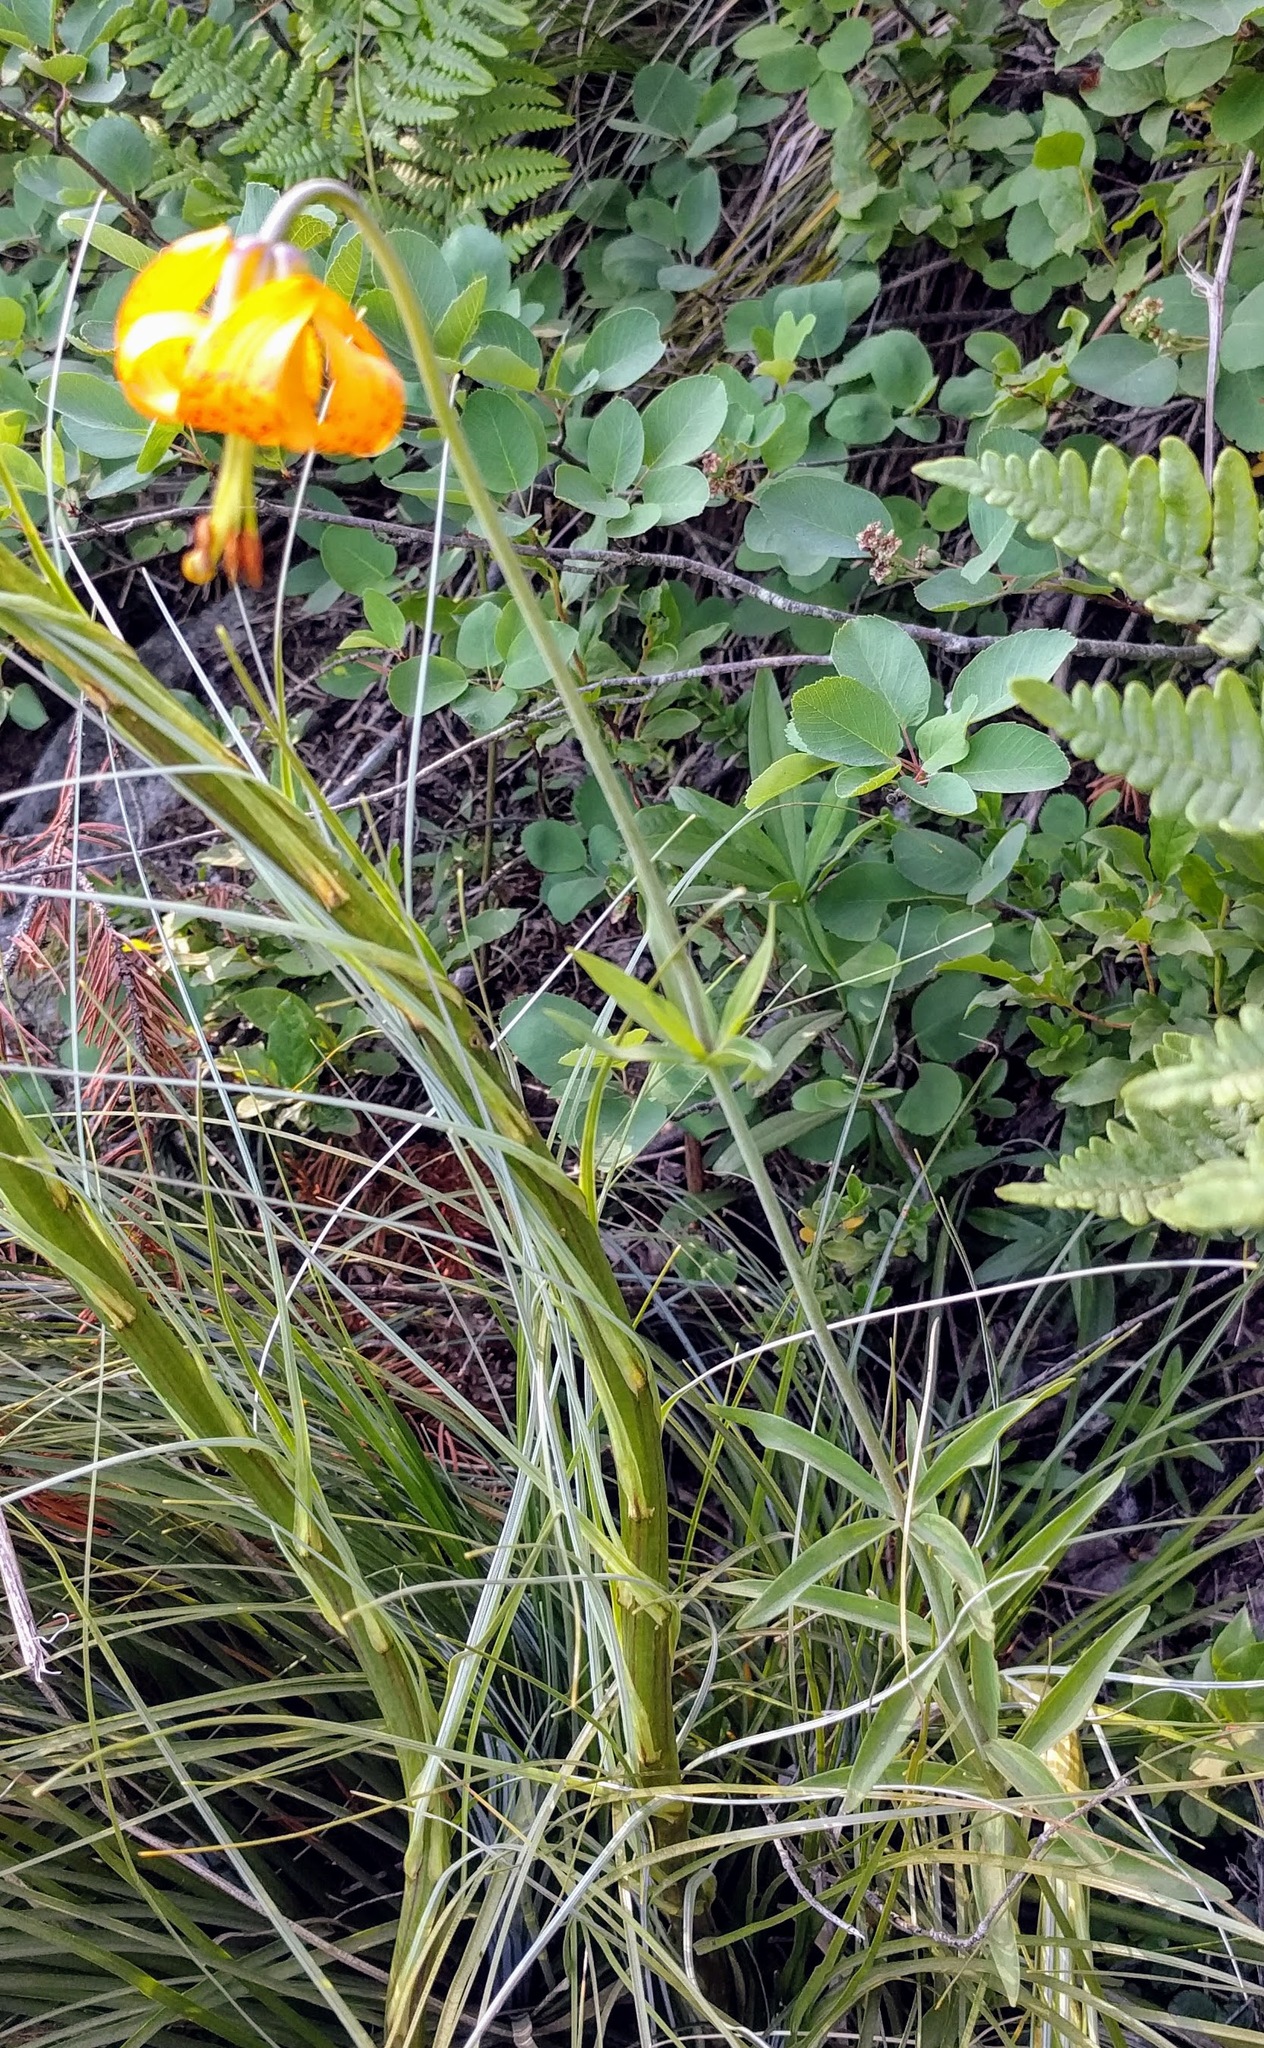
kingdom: Plantae
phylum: Tracheophyta
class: Liliopsida
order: Liliales
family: Liliaceae
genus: Lilium
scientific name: Lilium columbianum
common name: Columbia lily
